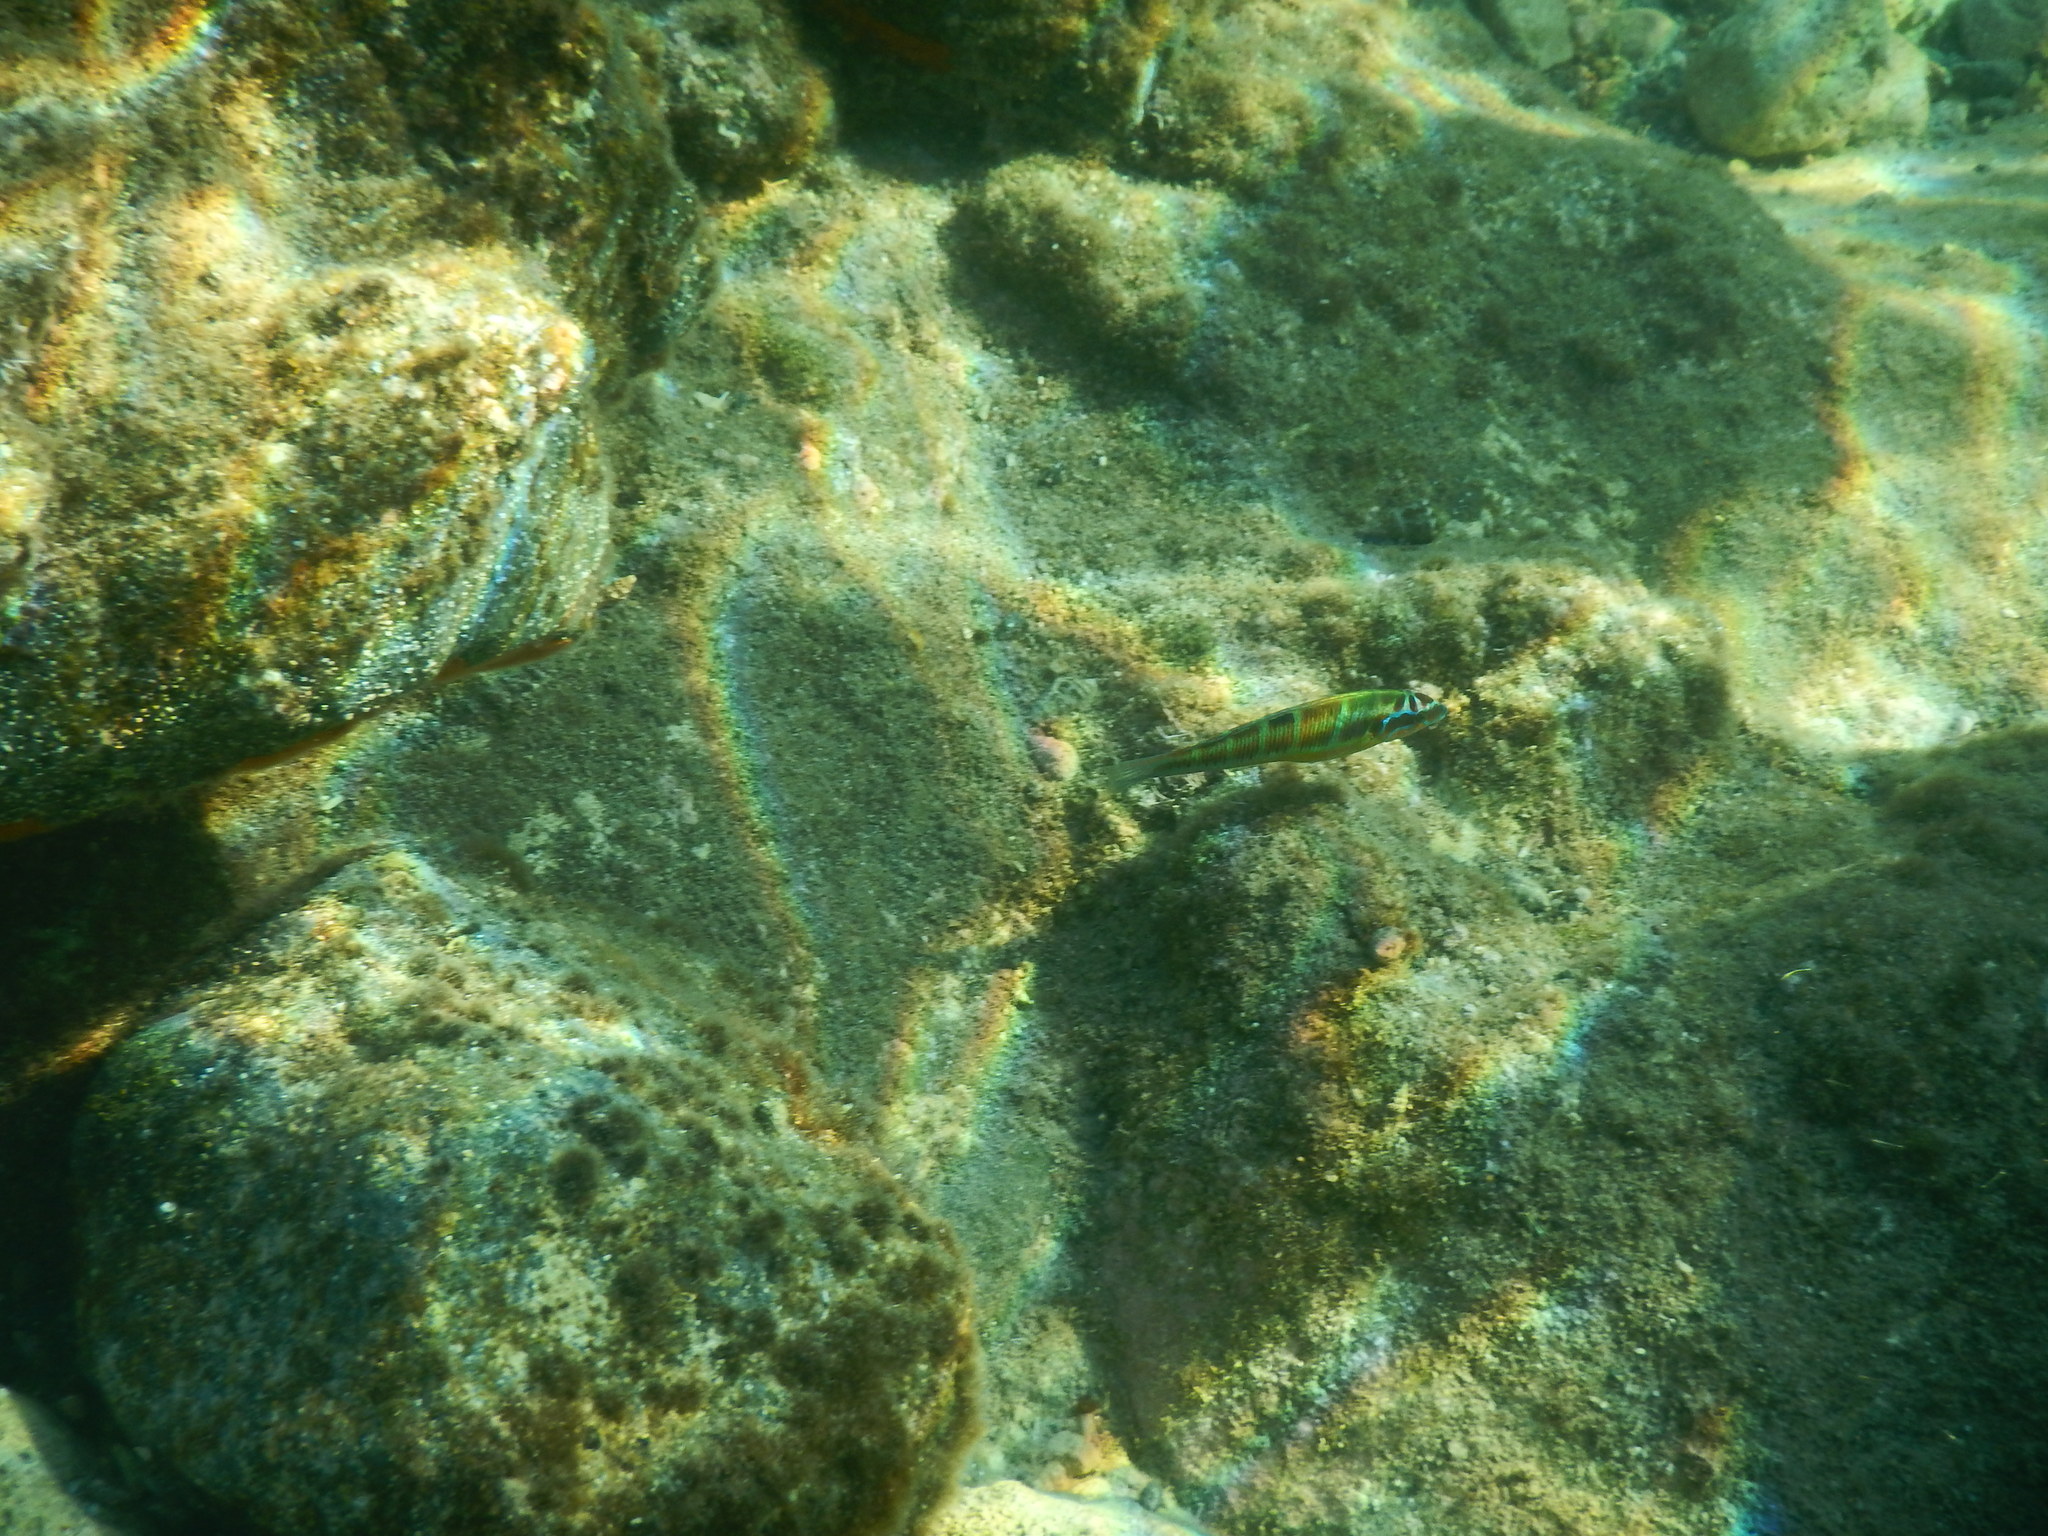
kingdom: Animalia
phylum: Chordata
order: Perciformes
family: Labridae
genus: Thalassoma
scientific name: Thalassoma pavo
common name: Ornate wrasse
